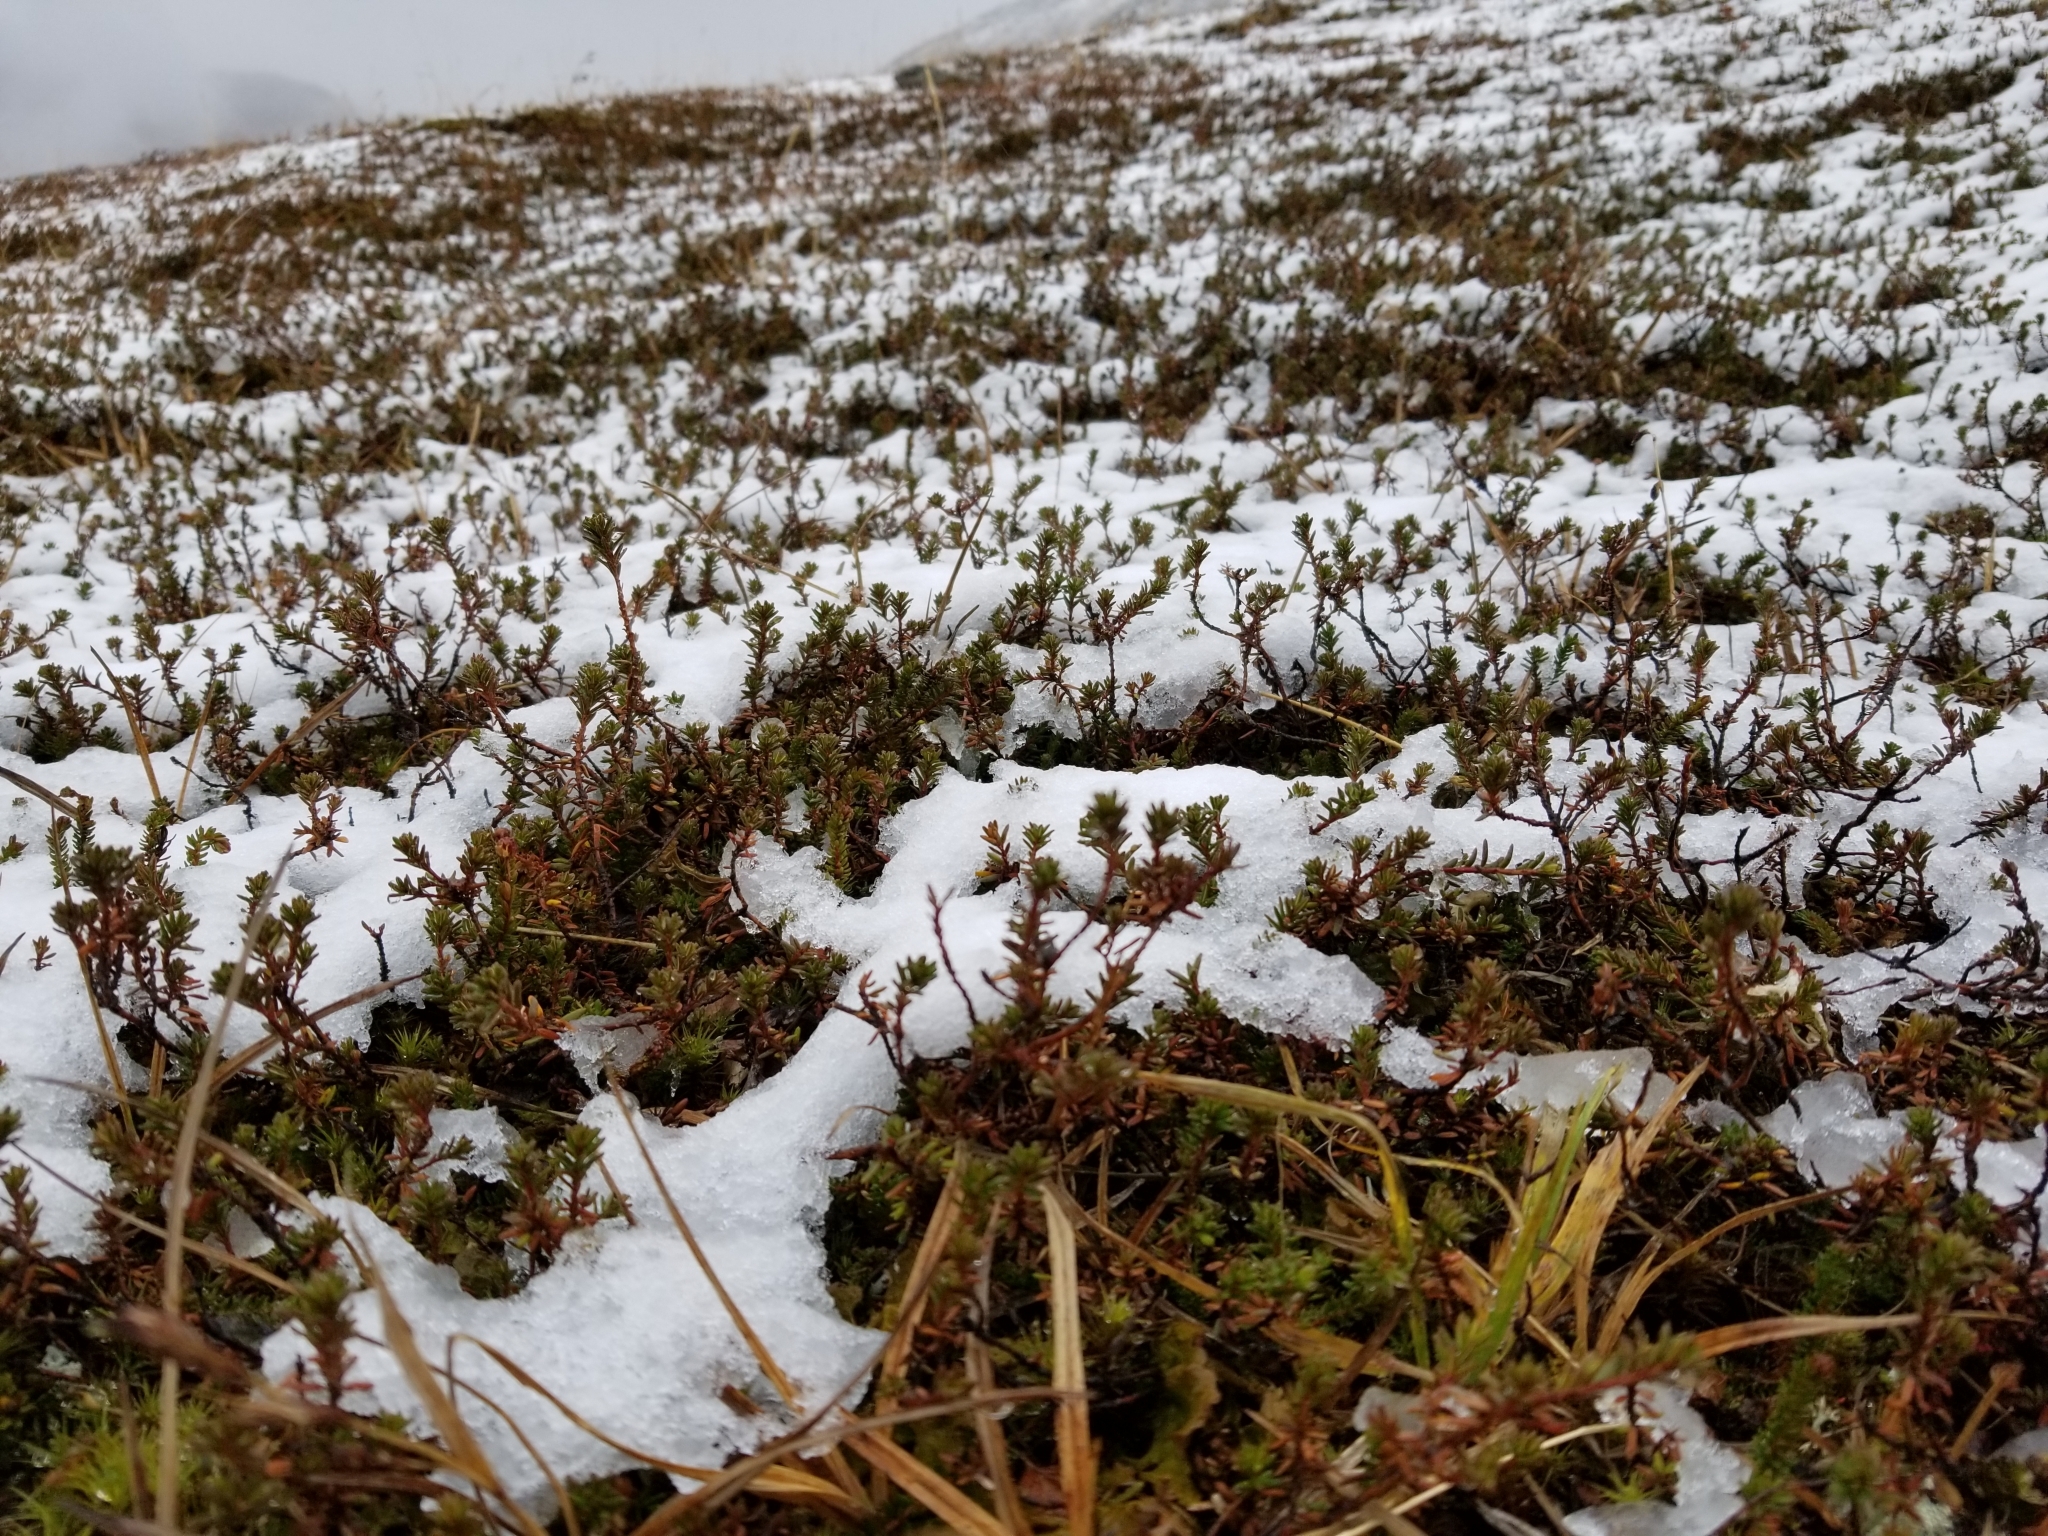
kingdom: Plantae
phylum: Tracheophyta
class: Magnoliopsida
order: Ericales
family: Ericaceae
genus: Empetrum
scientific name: Empetrum nigrum
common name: Black crowberry
